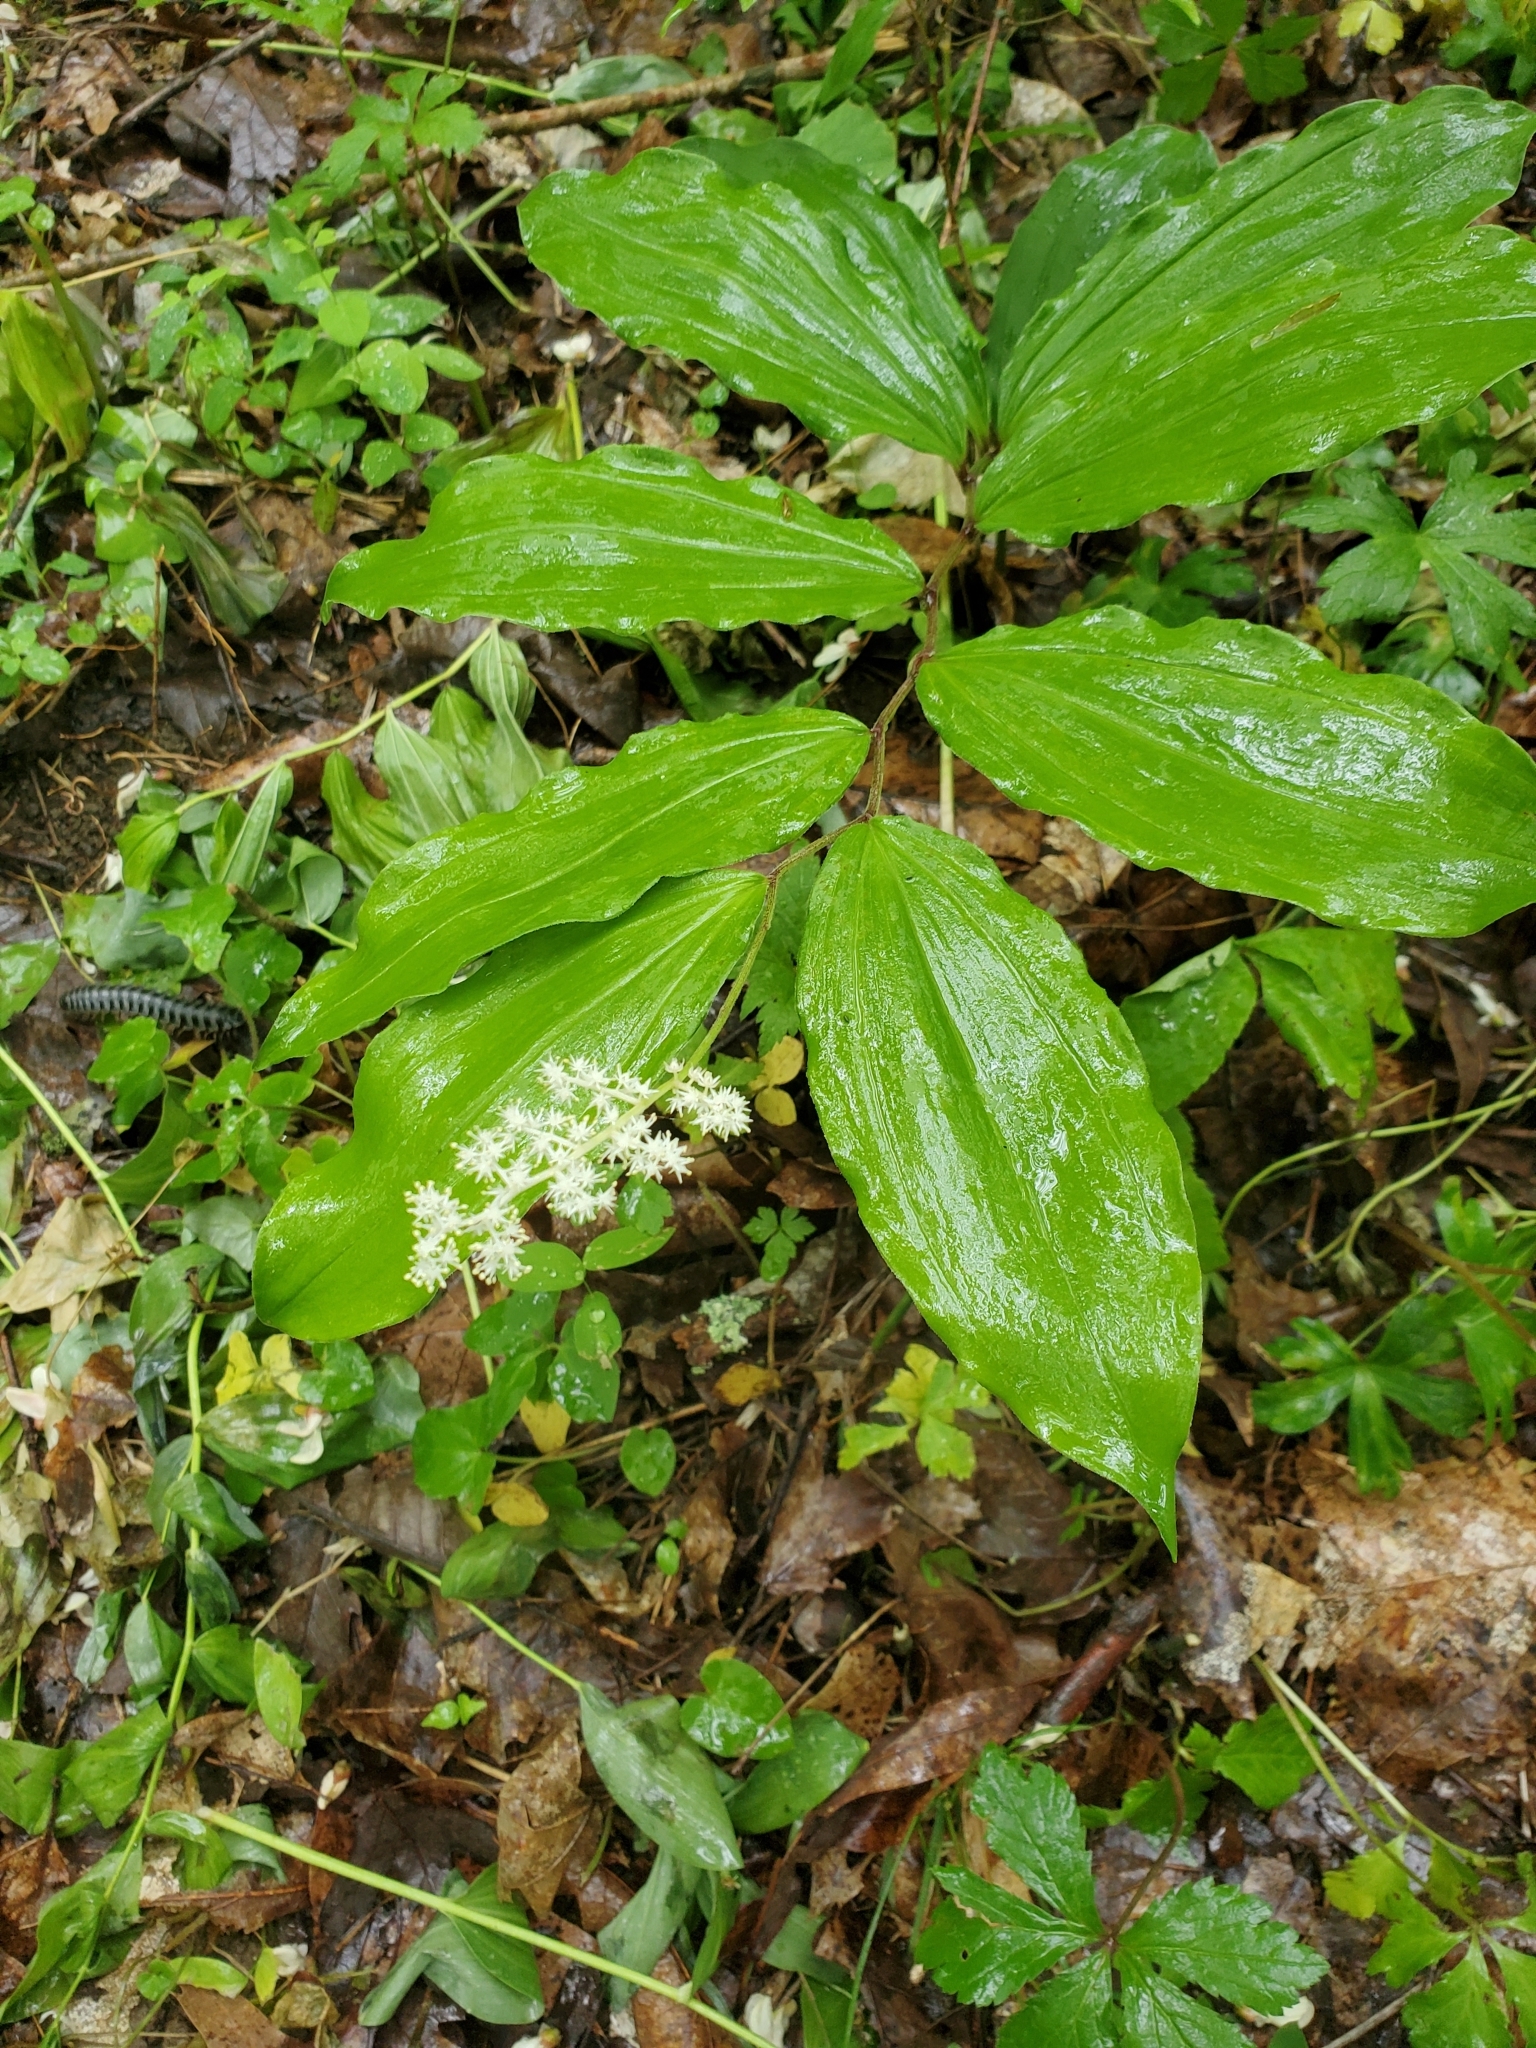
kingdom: Plantae
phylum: Tracheophyta
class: Liliopsida
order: Asparagales
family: Asparagaceae
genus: Maianthemum
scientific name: Maianthemum racemosum
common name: False spikenard
